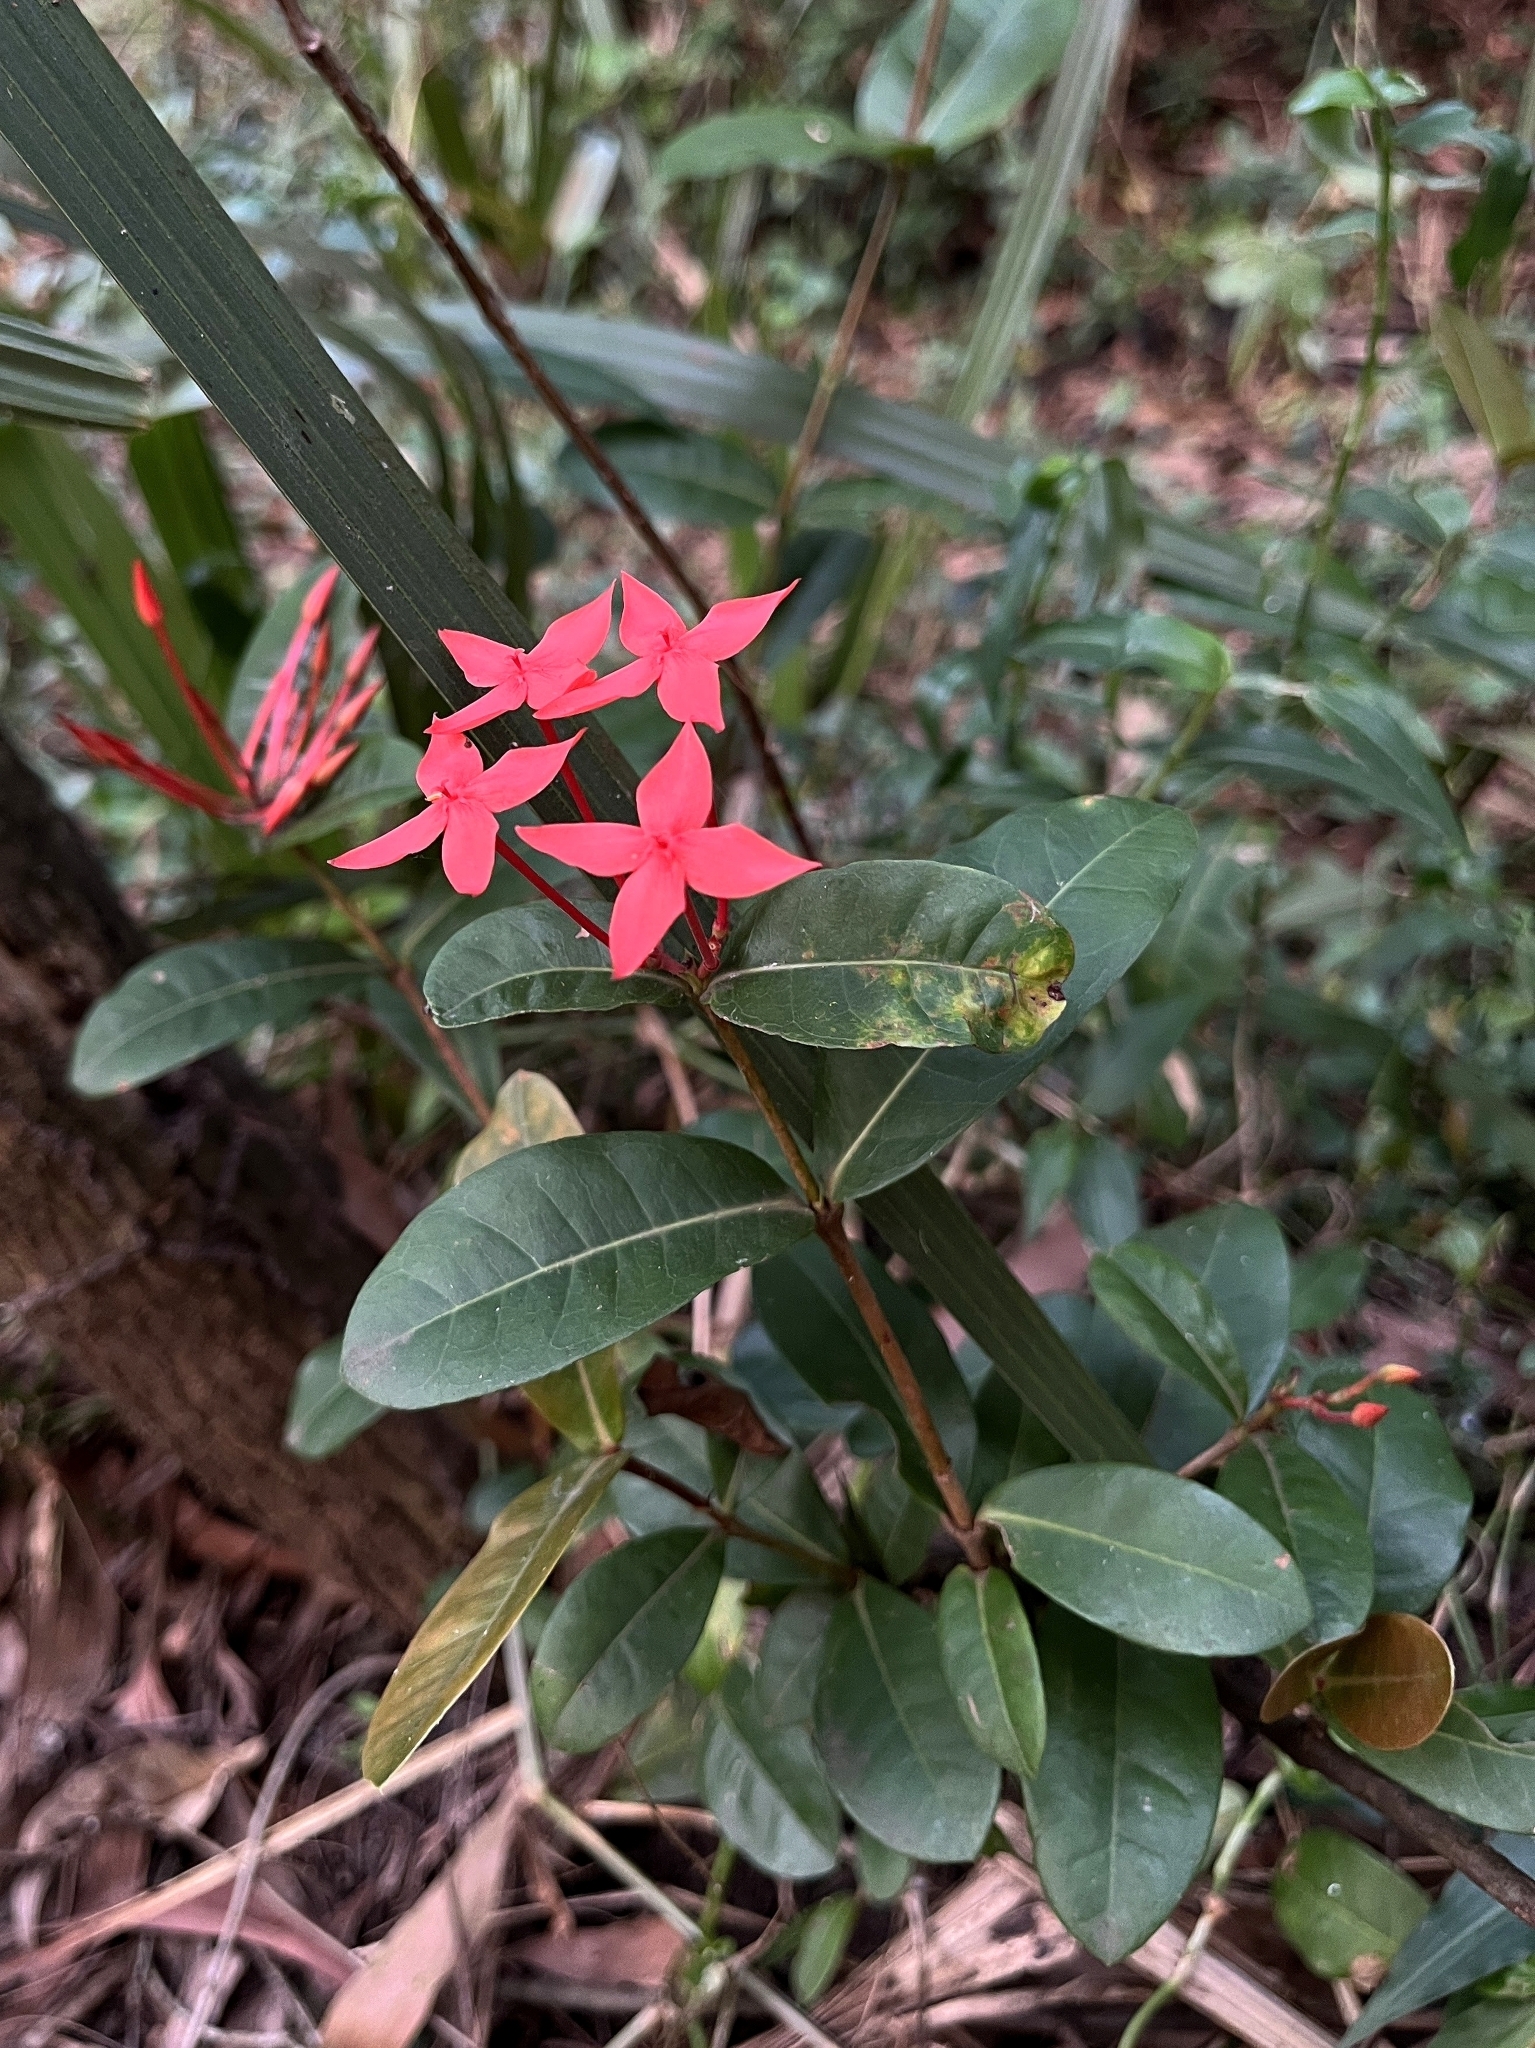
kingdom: Plantae
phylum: Tracheophyta
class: Magnoliopsida
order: Gentianales
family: Rubiaceae
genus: Ixora
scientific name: Ixora coccinea
